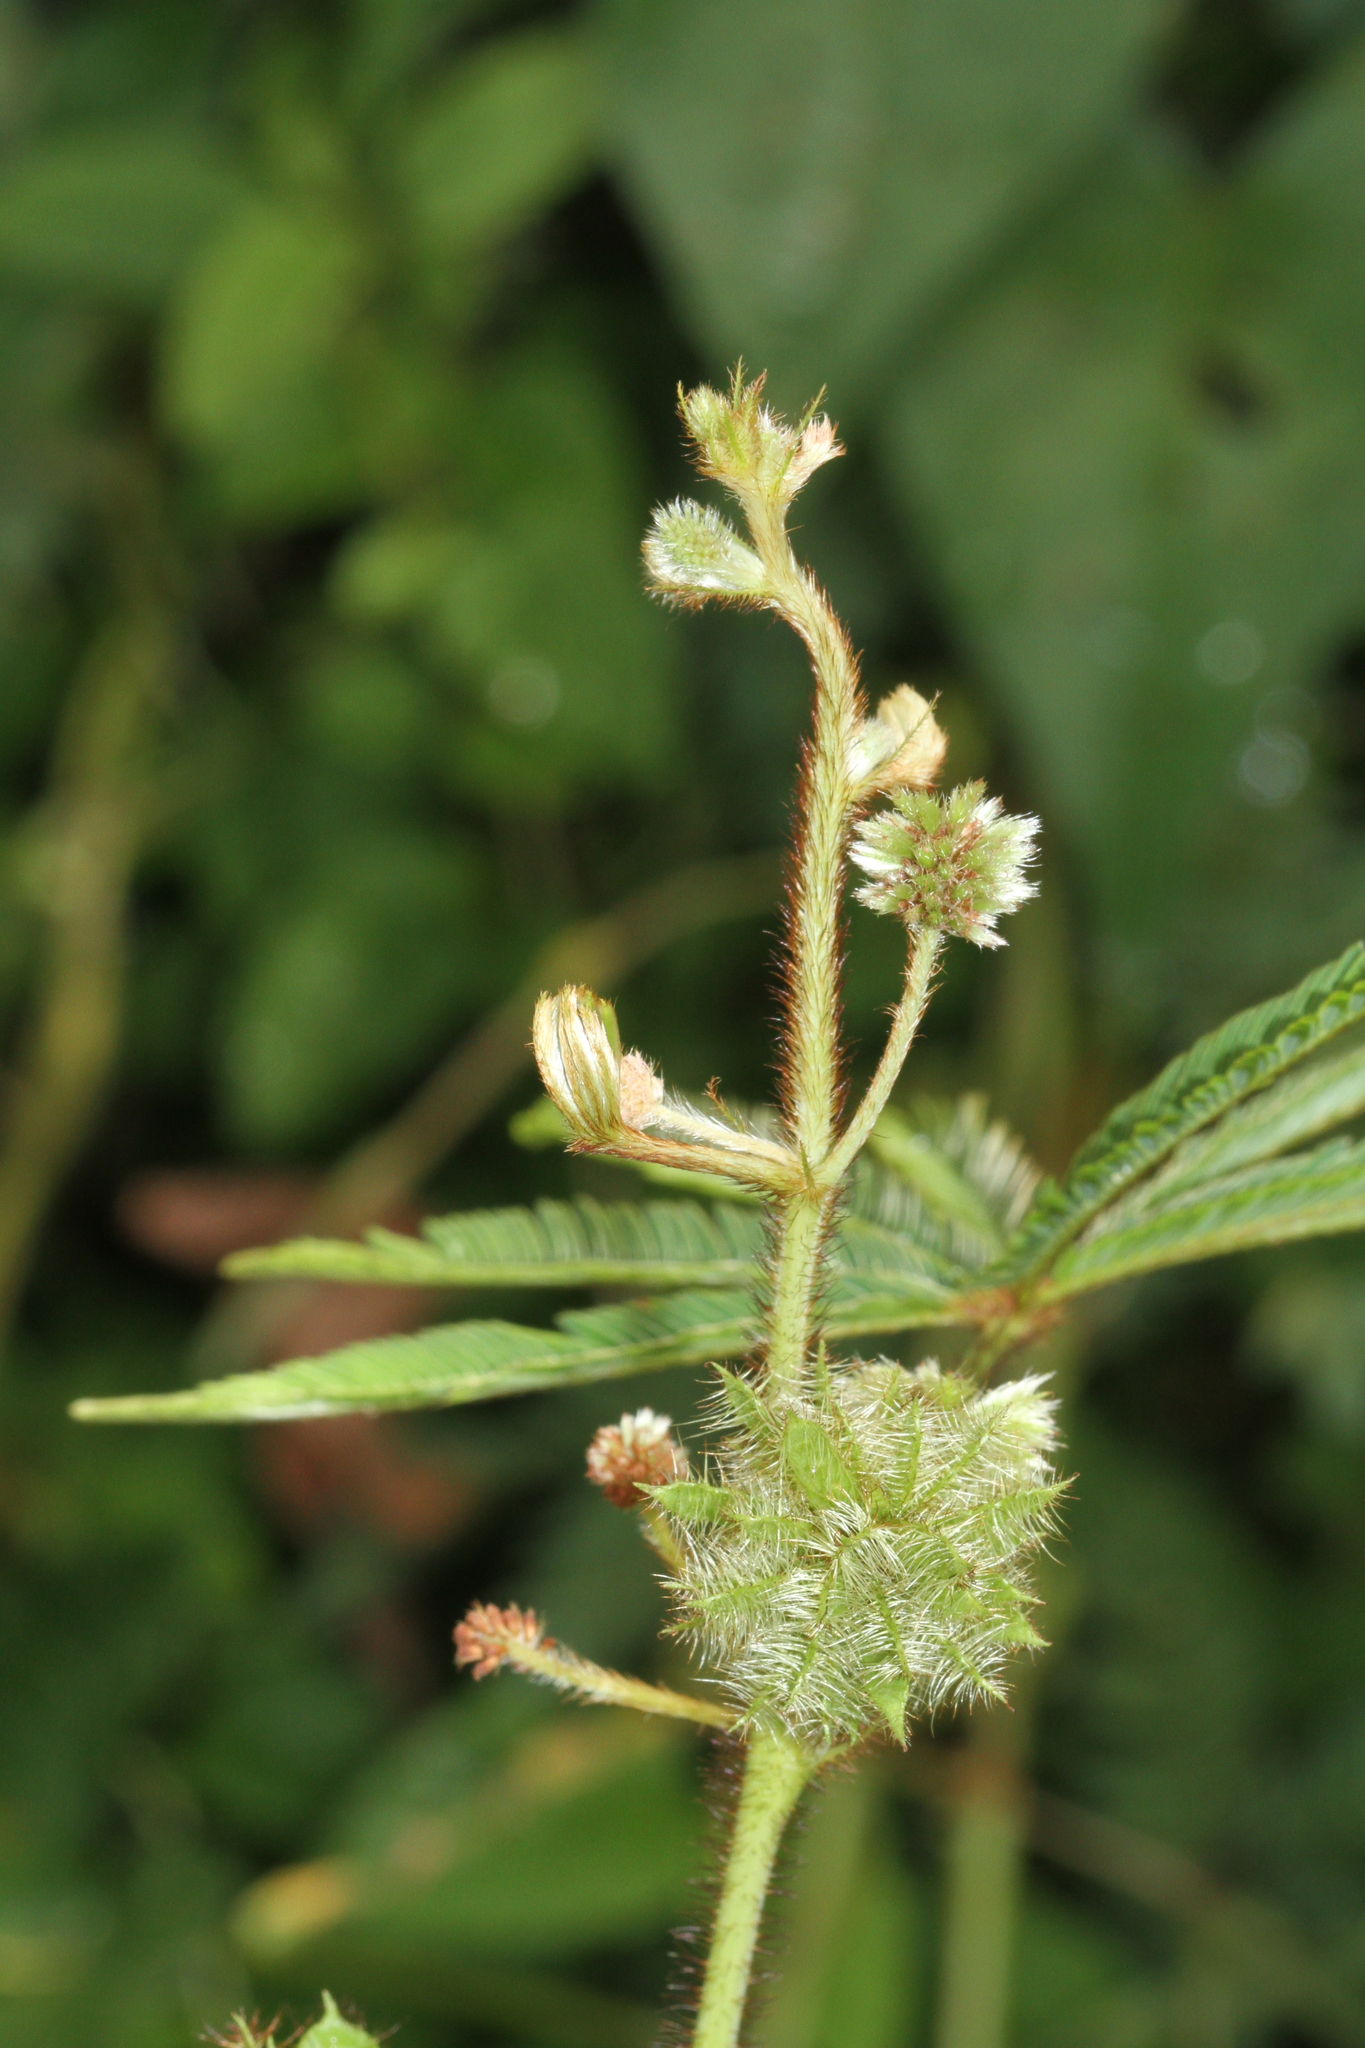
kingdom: Plantae
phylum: Tracheophyta
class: Magnoliopsida
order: Fabales
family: Fabaceae
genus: Mimosa
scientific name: Mimosa polydactyla
